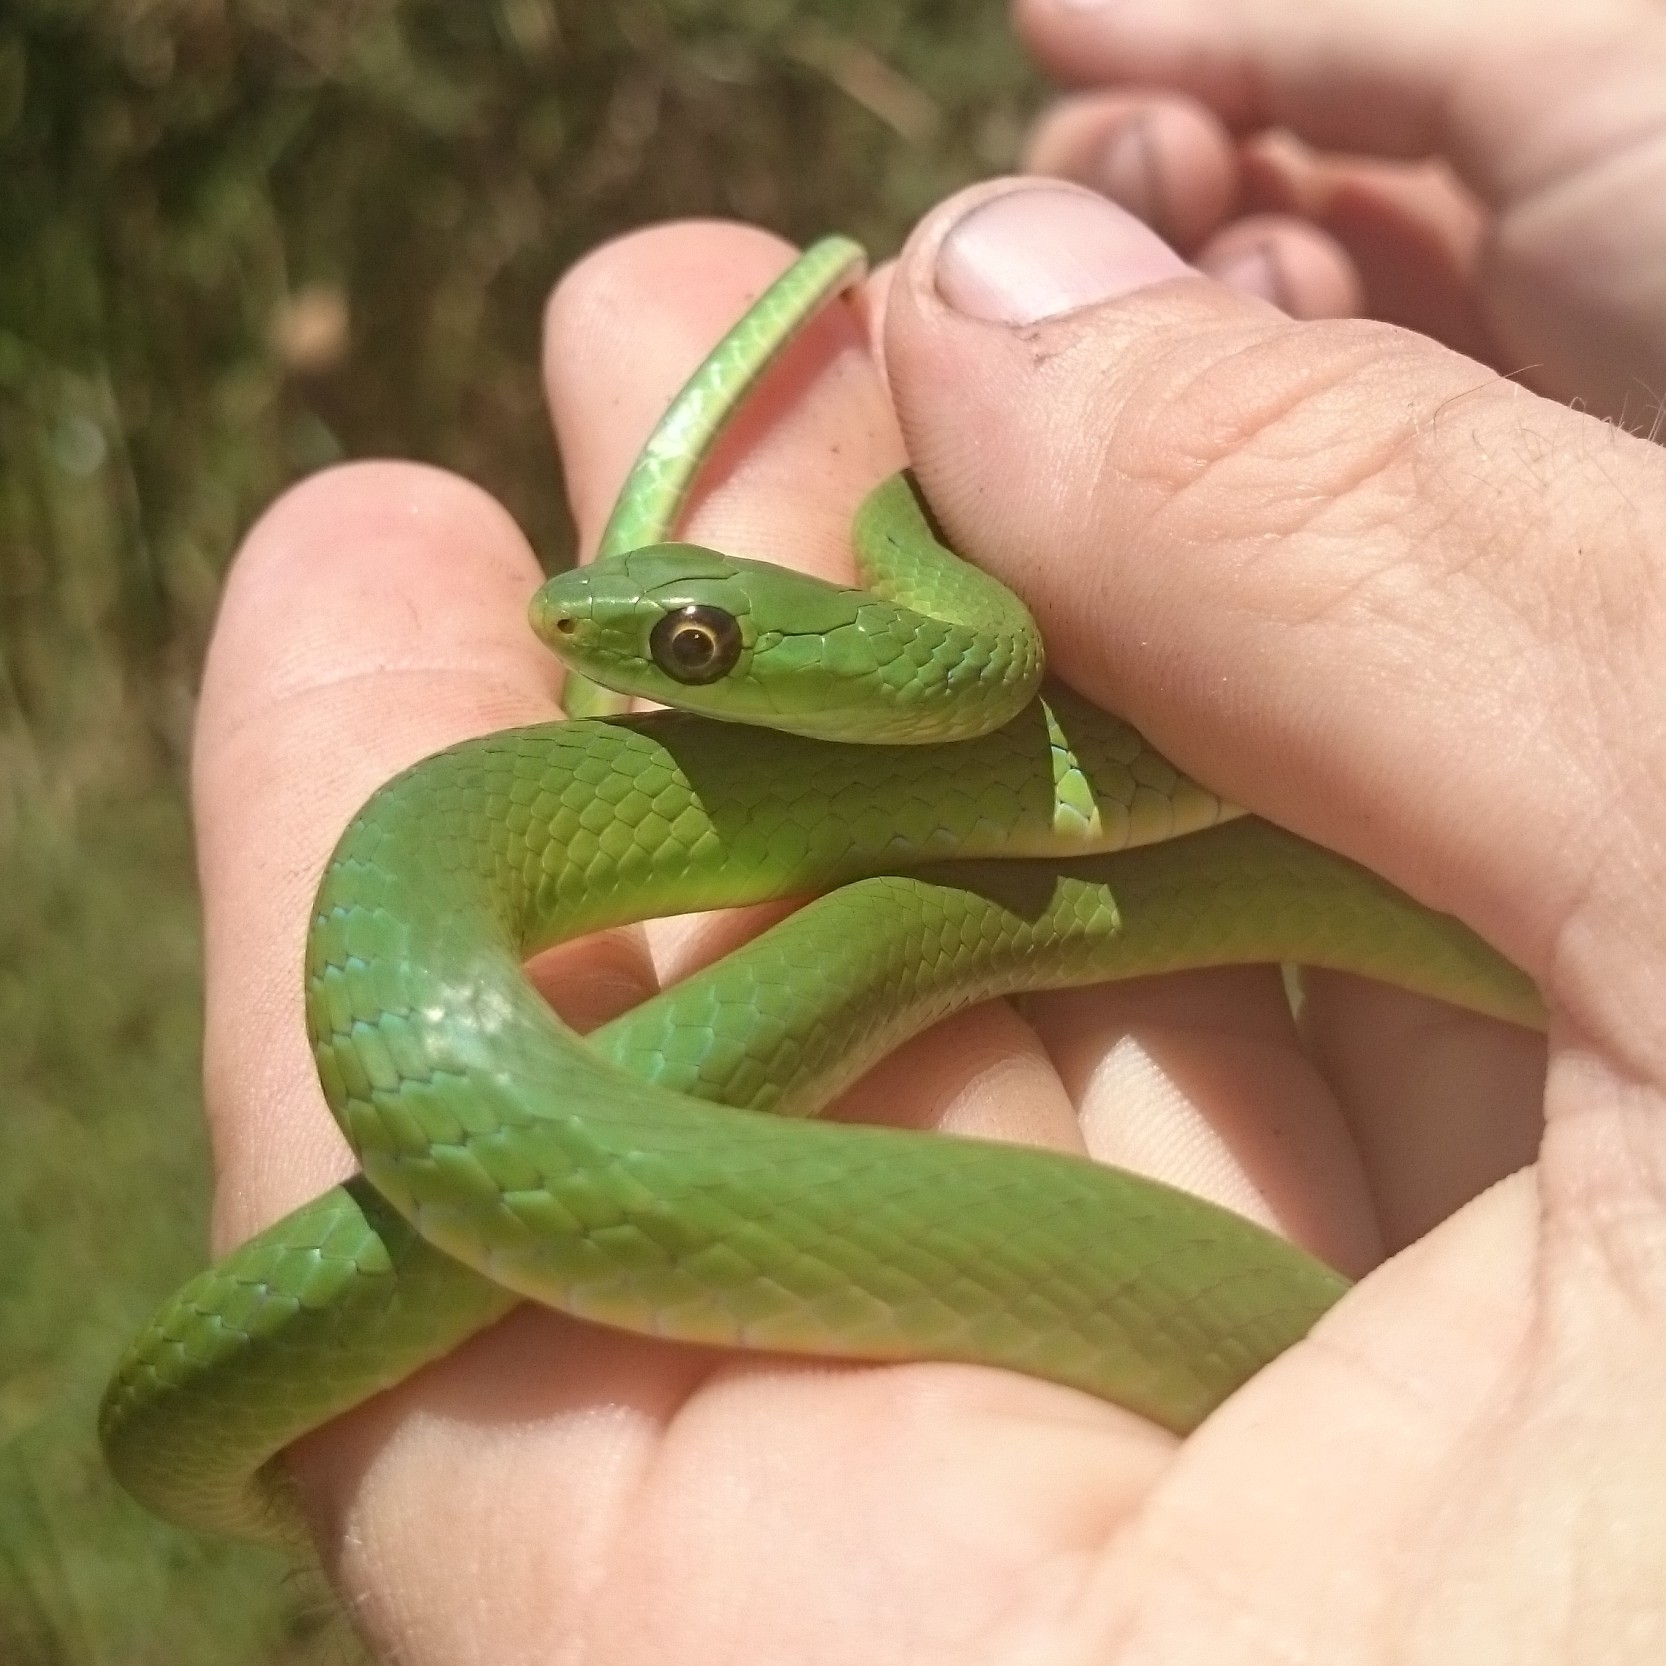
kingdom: Animalia
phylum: Chordata
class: Squamata
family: Colubridae
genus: Philothamnus
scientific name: Philothamnus hoplogaster
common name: Green water snake
